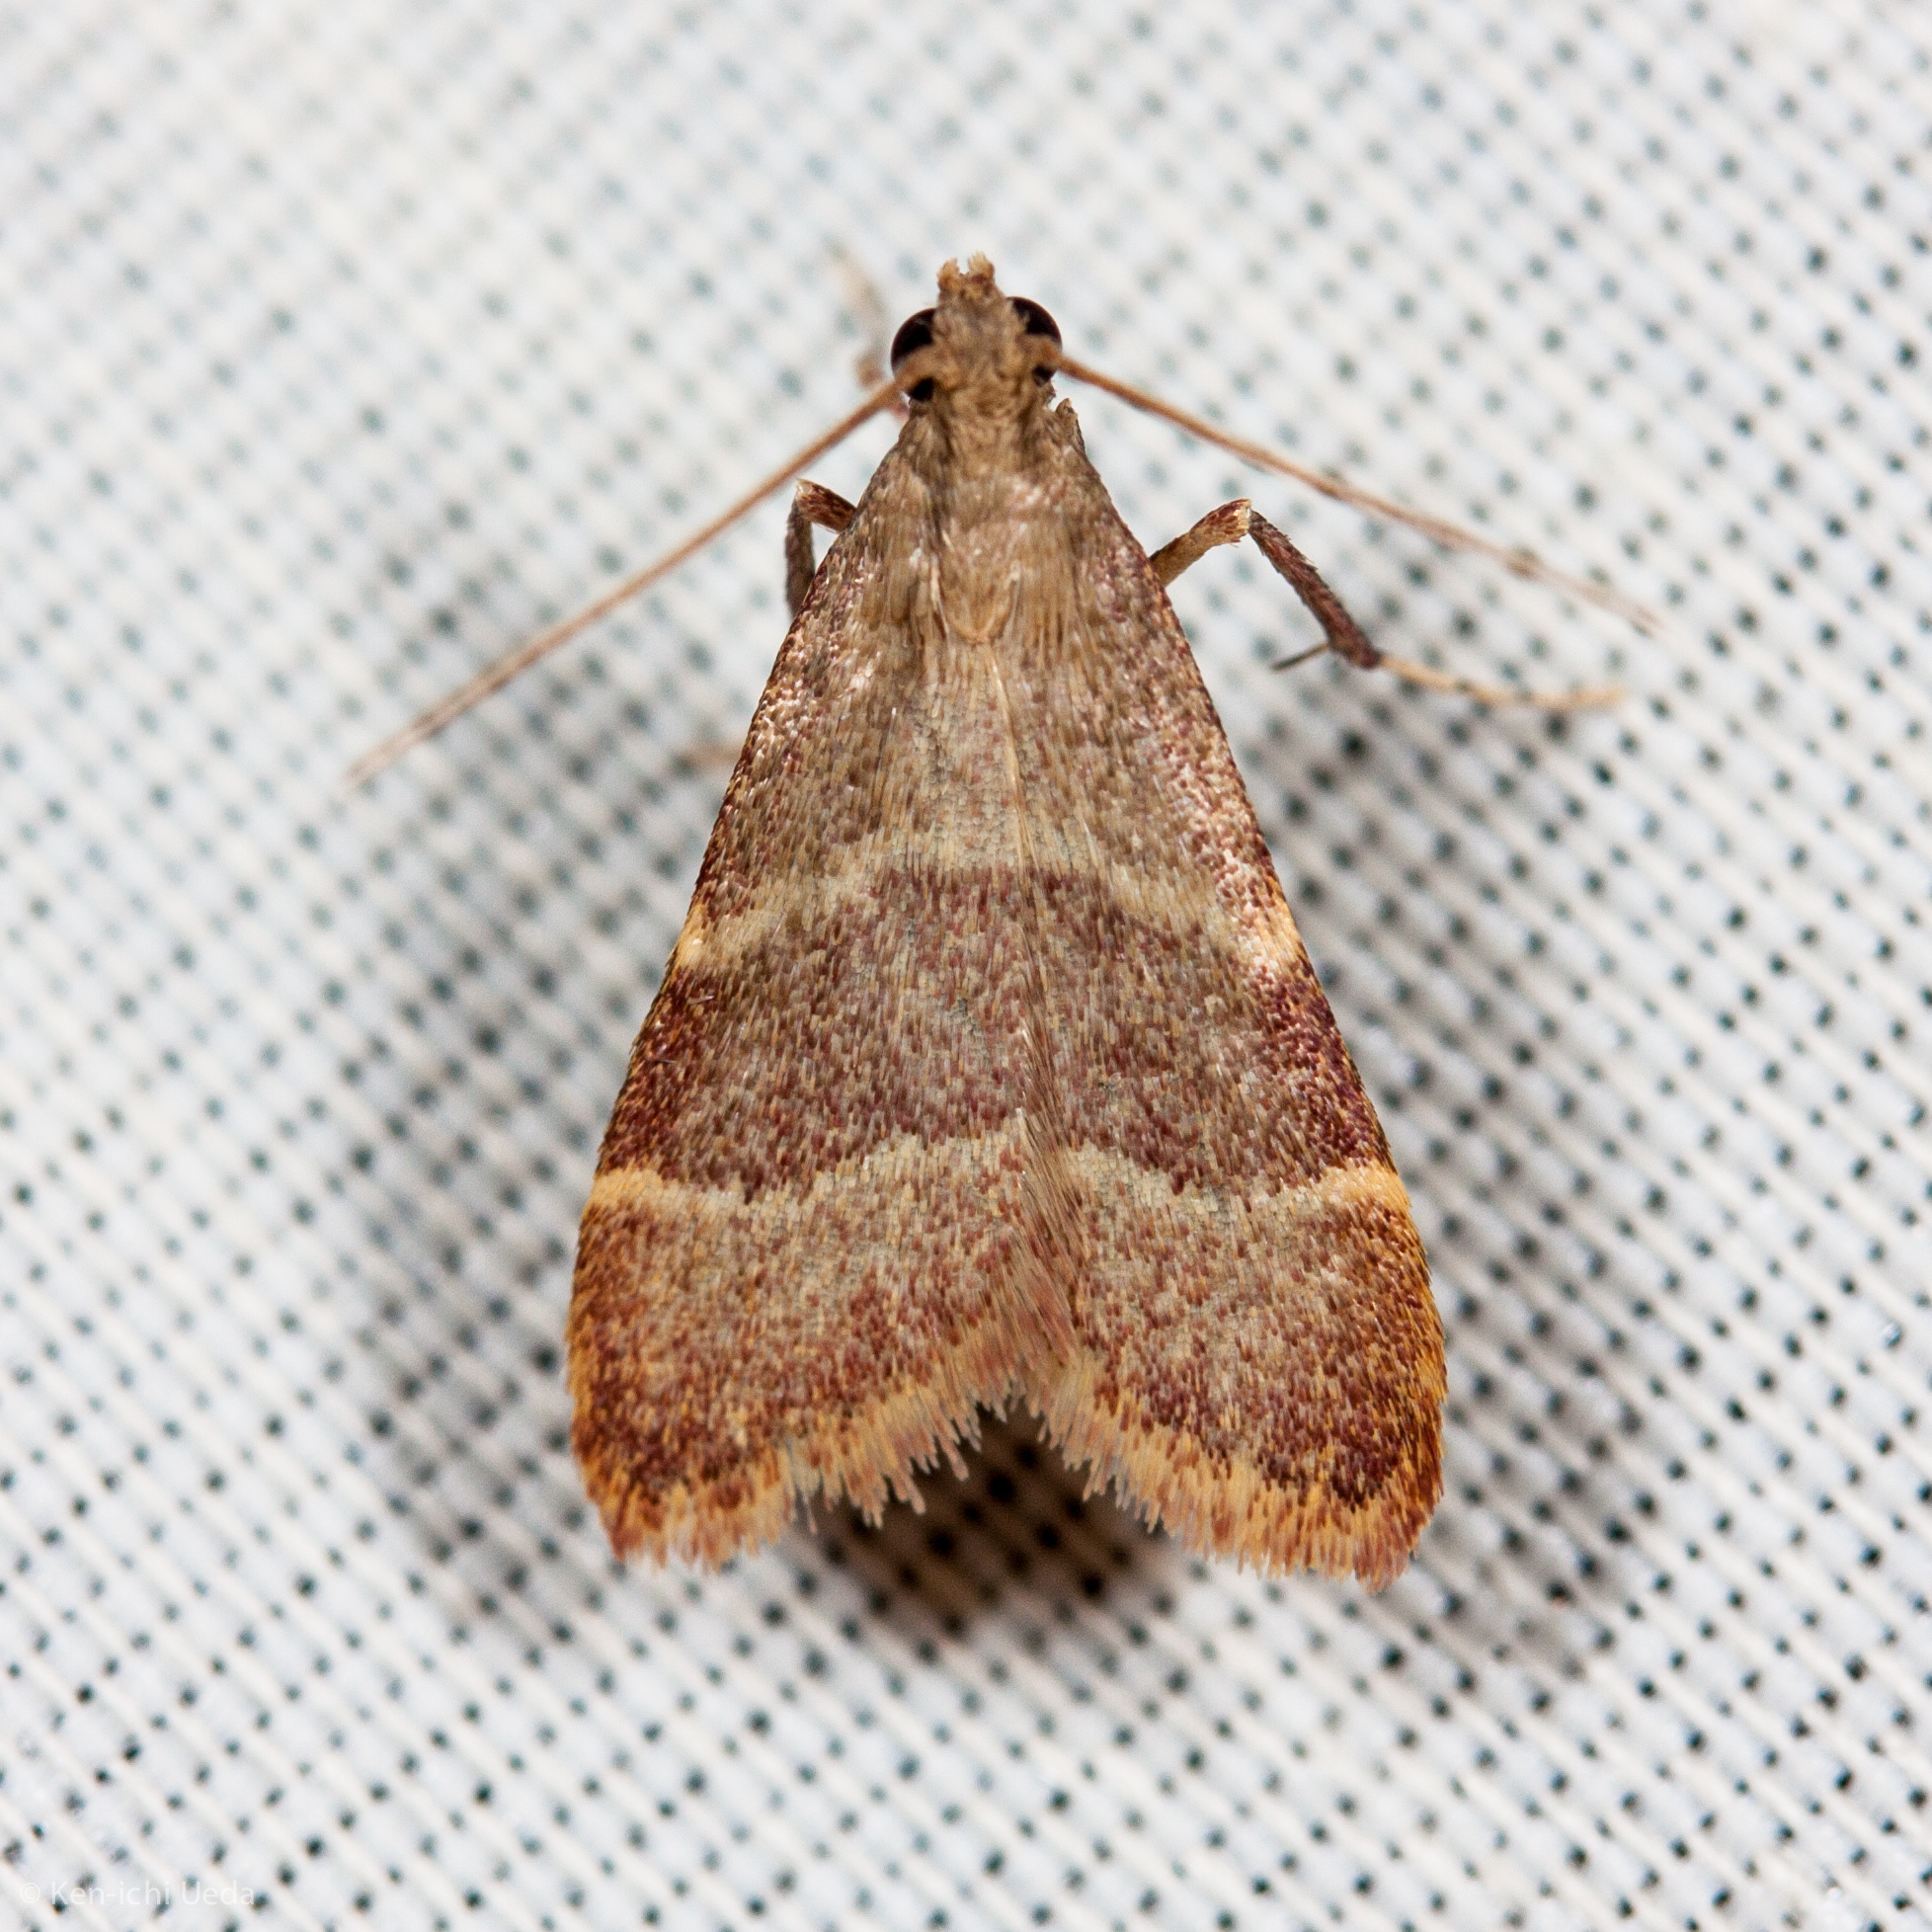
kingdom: Animalia
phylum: Arthropoda
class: Insecta
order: Lepidoptera
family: Pyralidae
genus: Arta
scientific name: Arta epicoenalis
